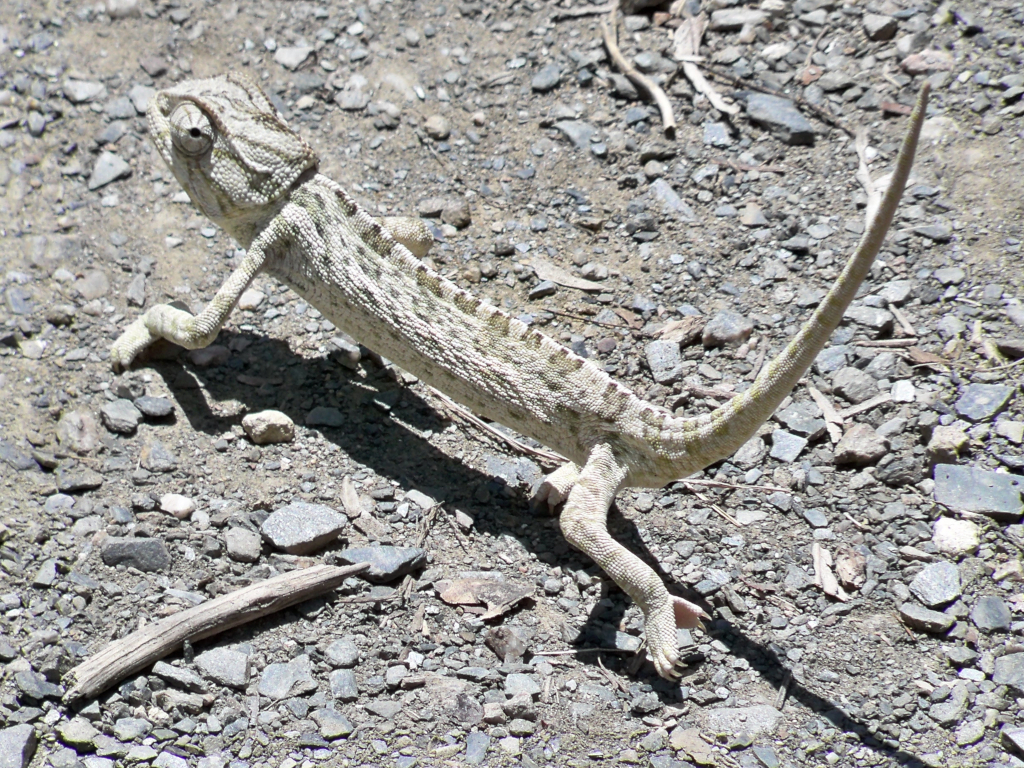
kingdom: Animalia
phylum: Chordata
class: Squamata
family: Chamaeleonidae
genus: Chamaeleo
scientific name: Chamaeleo chamaeleon
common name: Mediterranean chameleon
